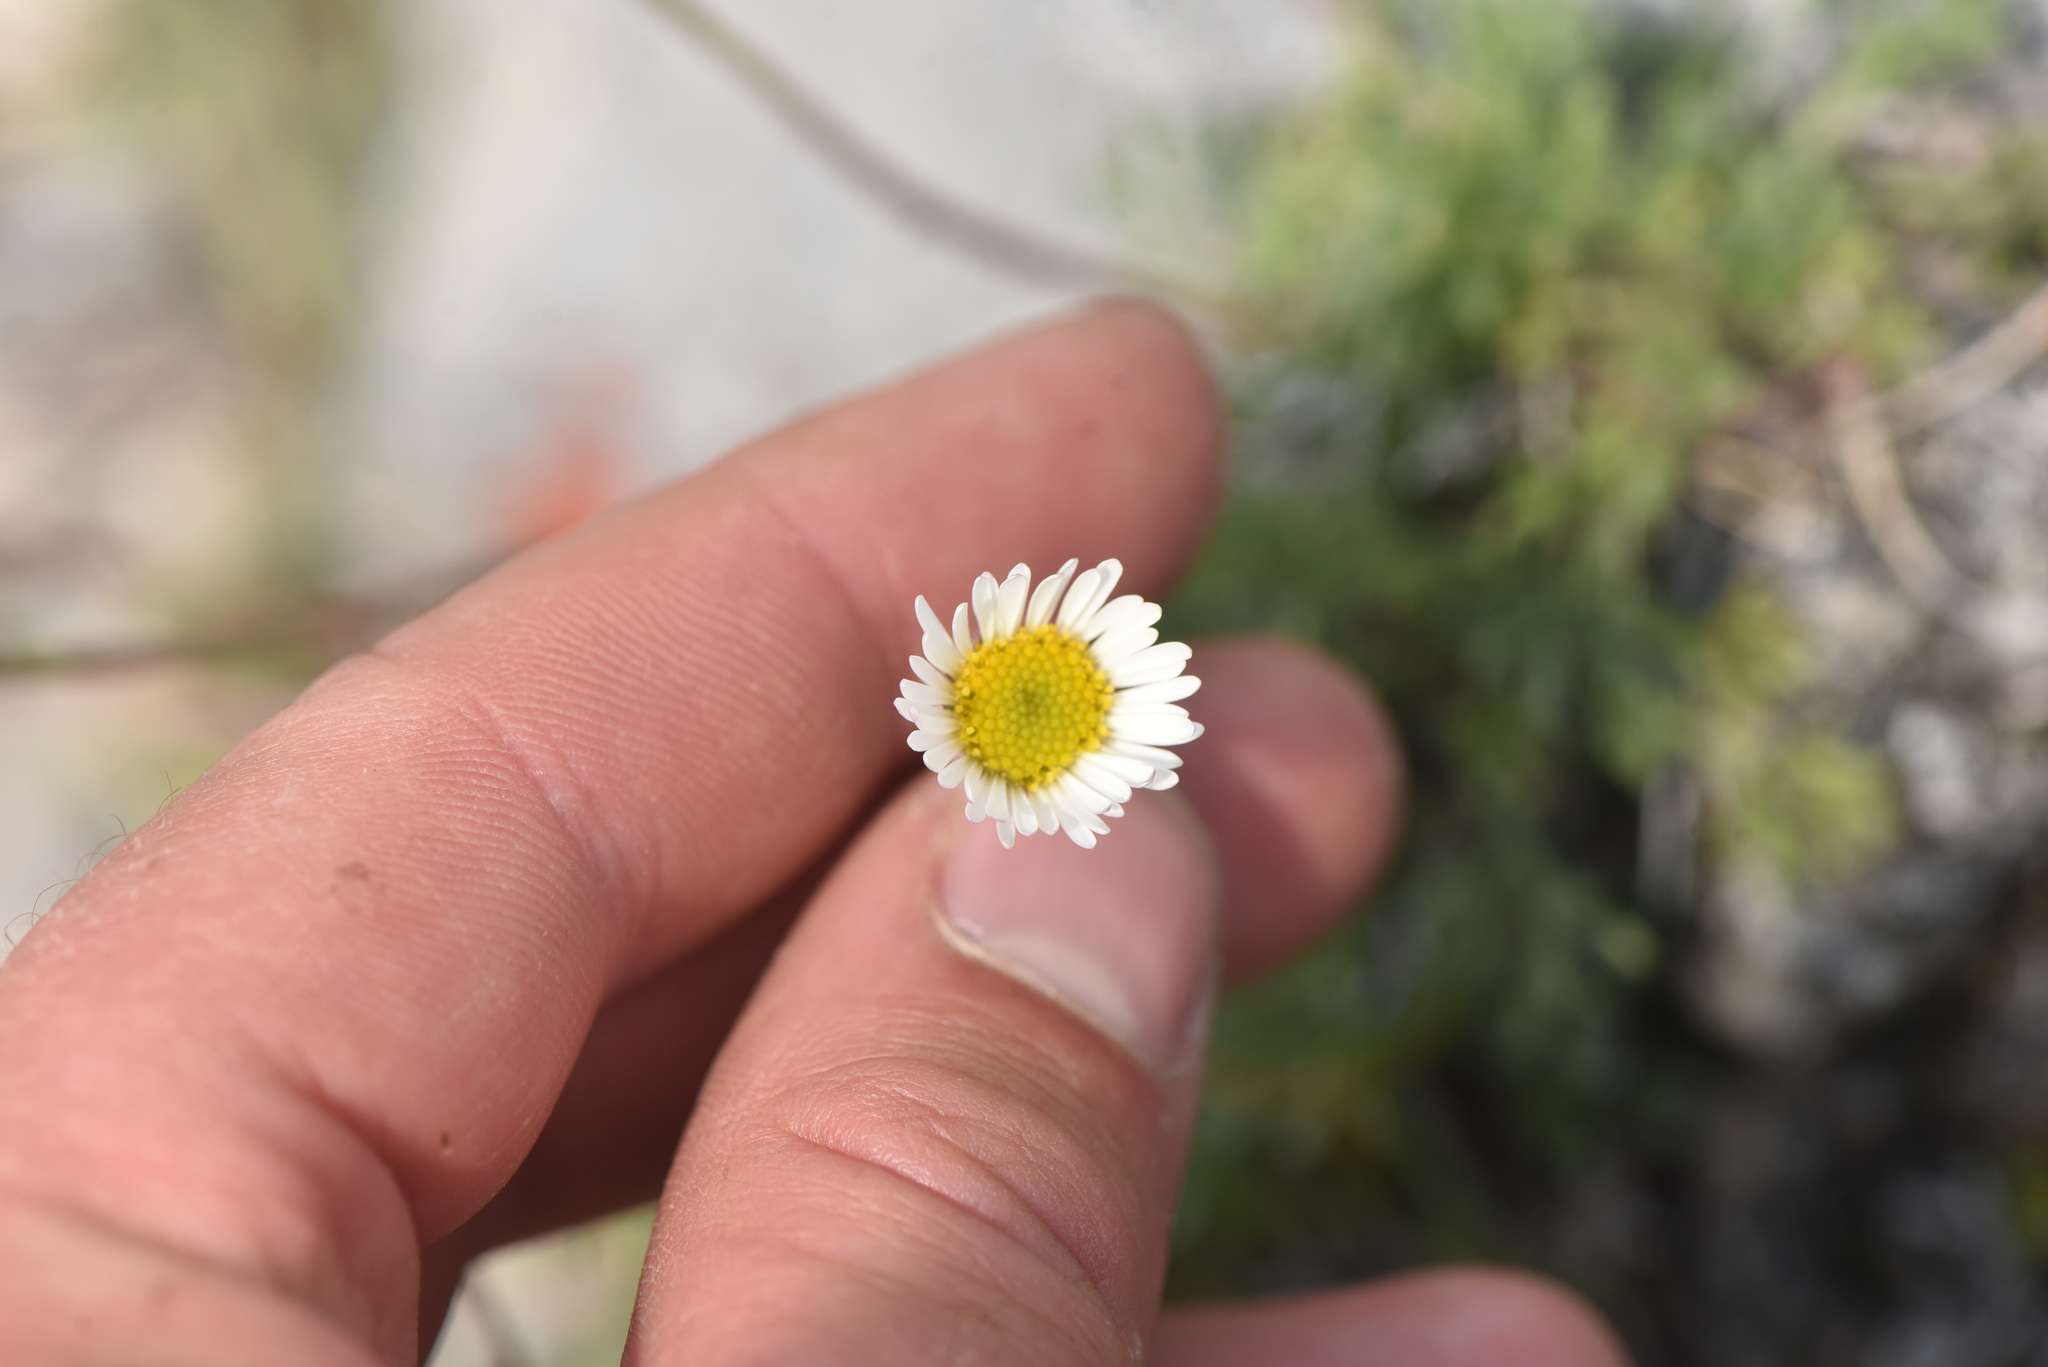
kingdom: Plantae
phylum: Tracheophyta
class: Magnoliopsida
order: Asterales
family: Asteraceae
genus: Erigeron
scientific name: Erigeron compositus
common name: Dwarf mountain fleabane
